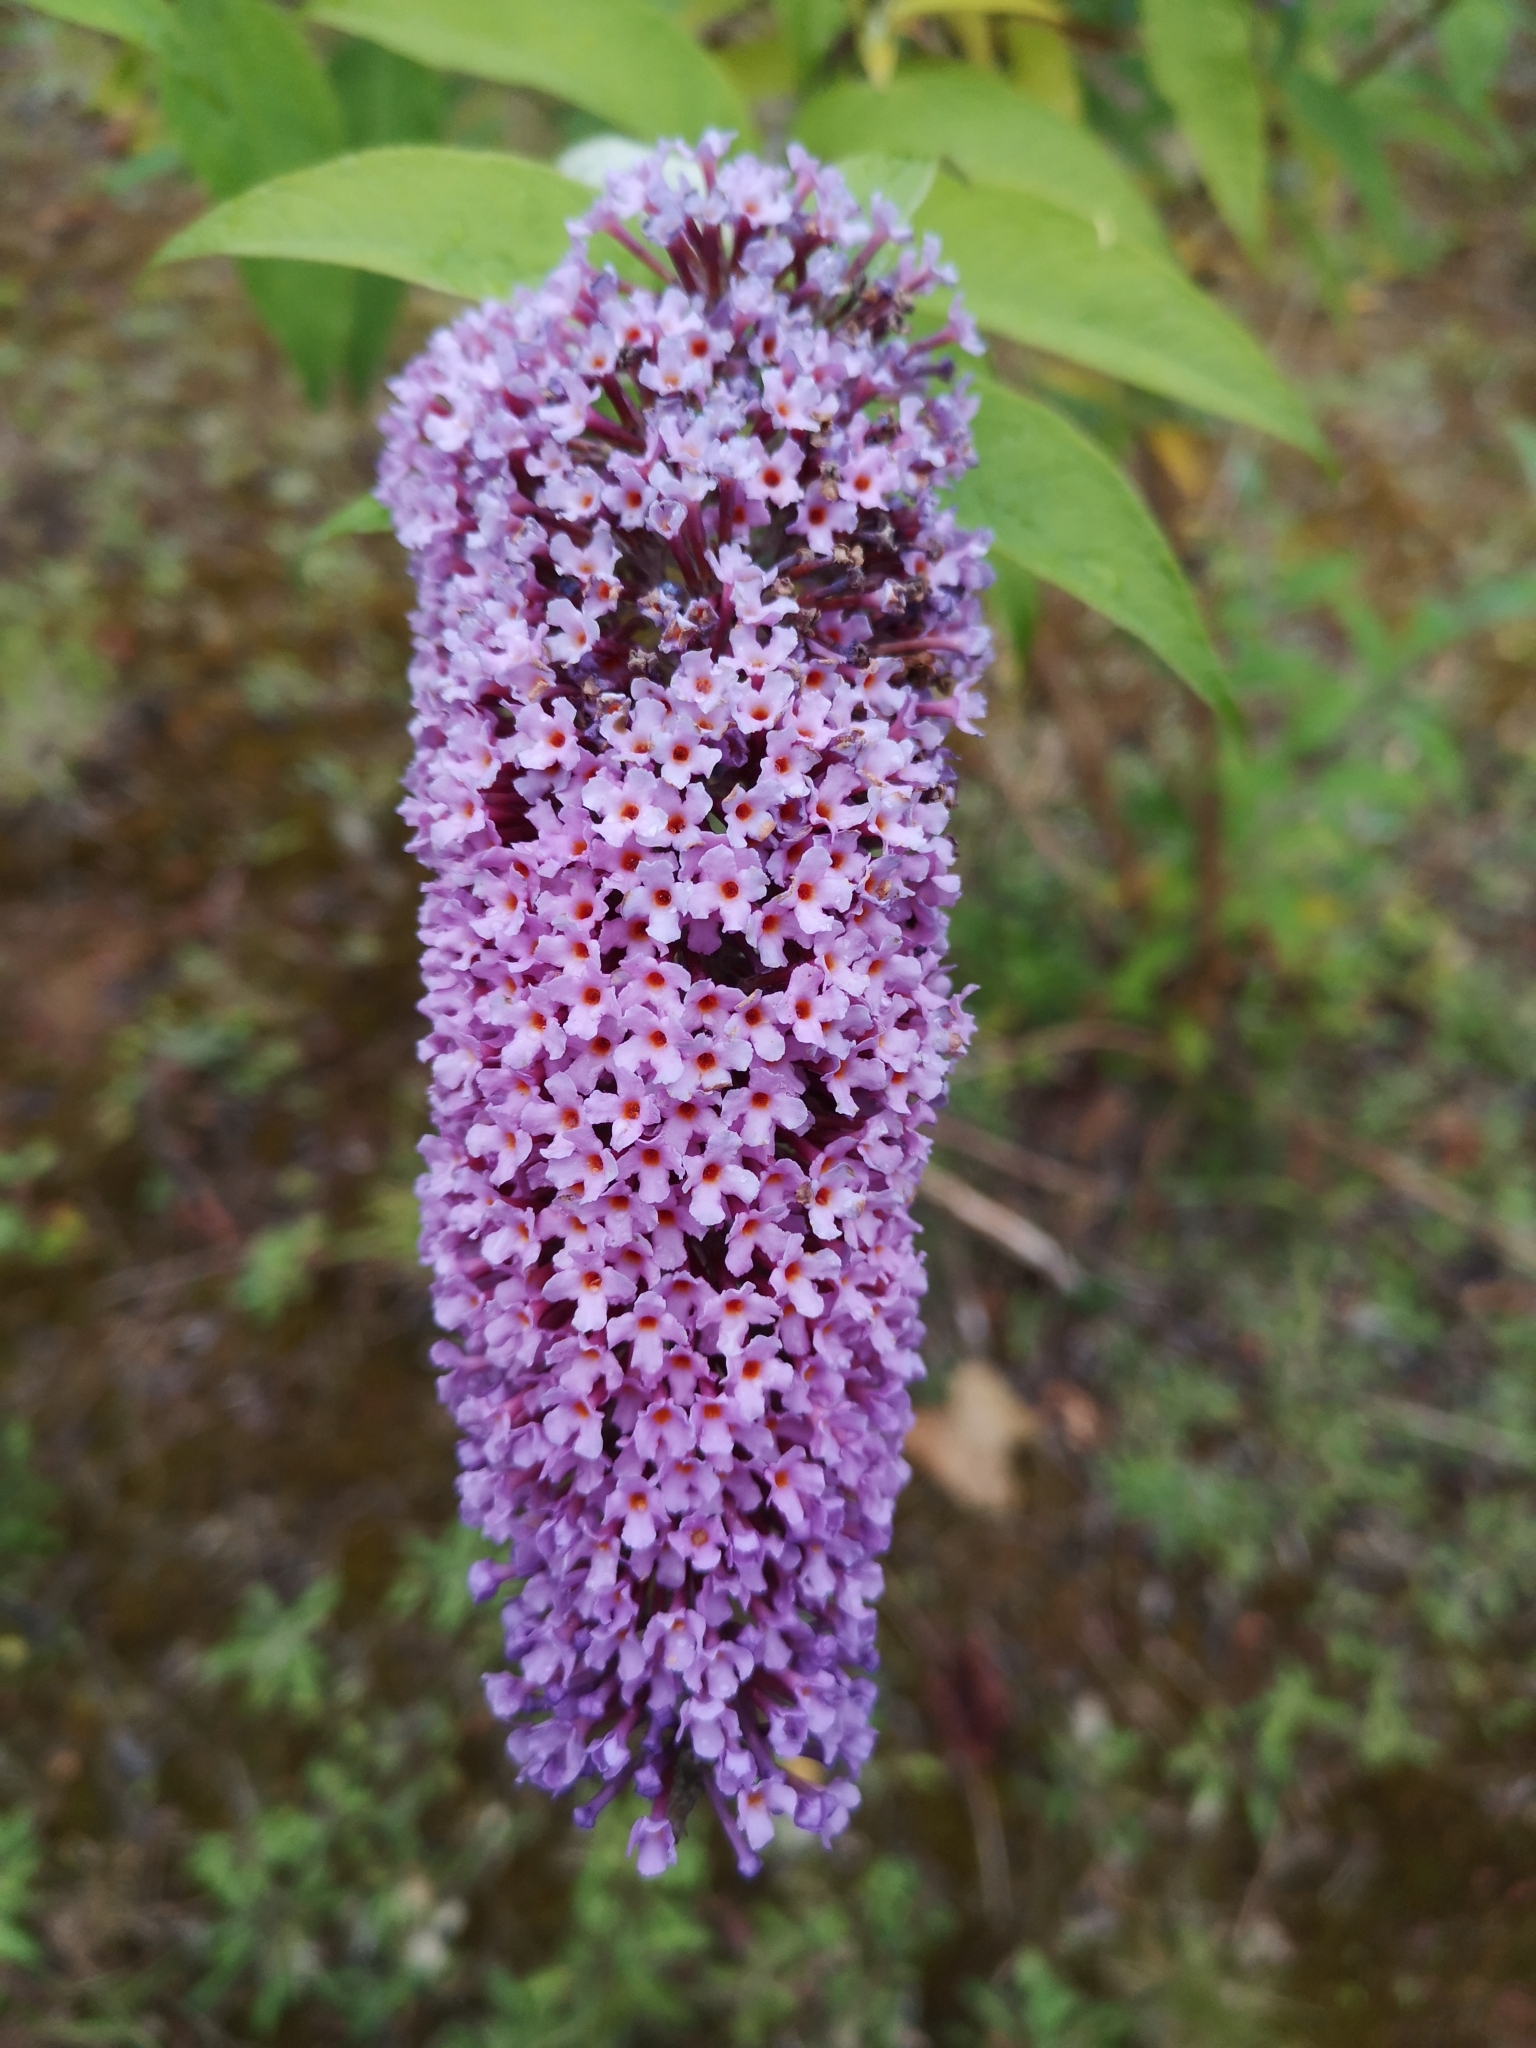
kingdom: Plantae
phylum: Tracheophyta
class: Magnoliopsida
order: Lamiales
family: Scrophulariaceae
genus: Buddleja
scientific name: Buddleja davidii
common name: Butterfly-bush
